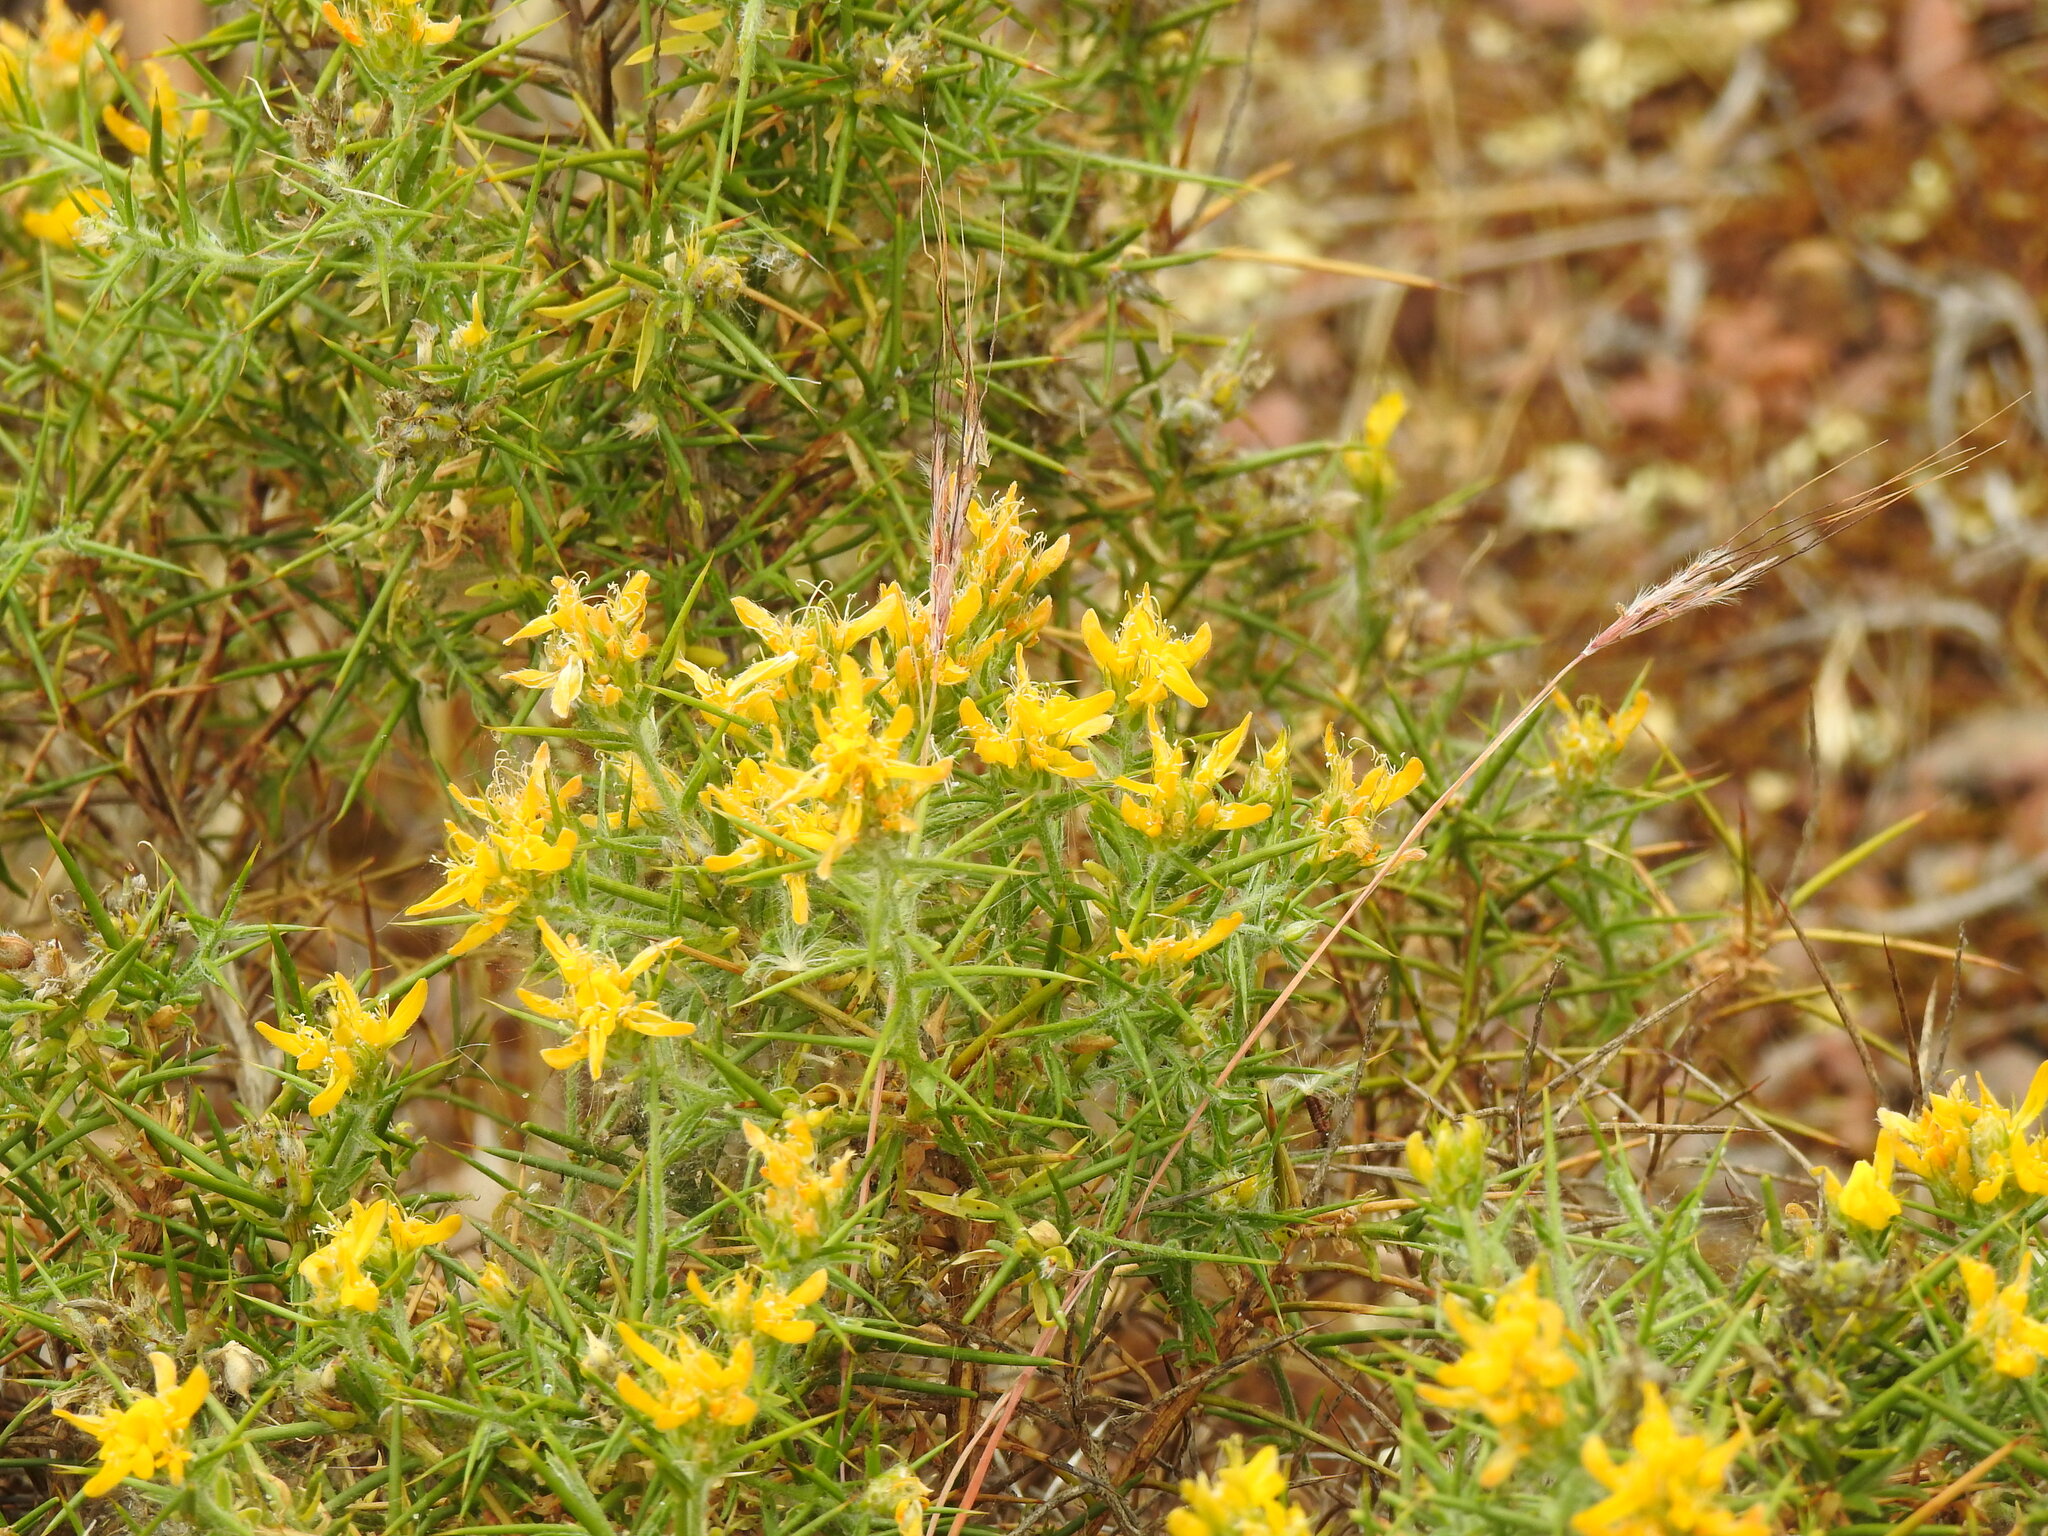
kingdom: Plantae
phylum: Tracheophyta
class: Magnoliopsida
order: Fabales
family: Fabaceae
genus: Genista
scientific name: Genista hirsuta
